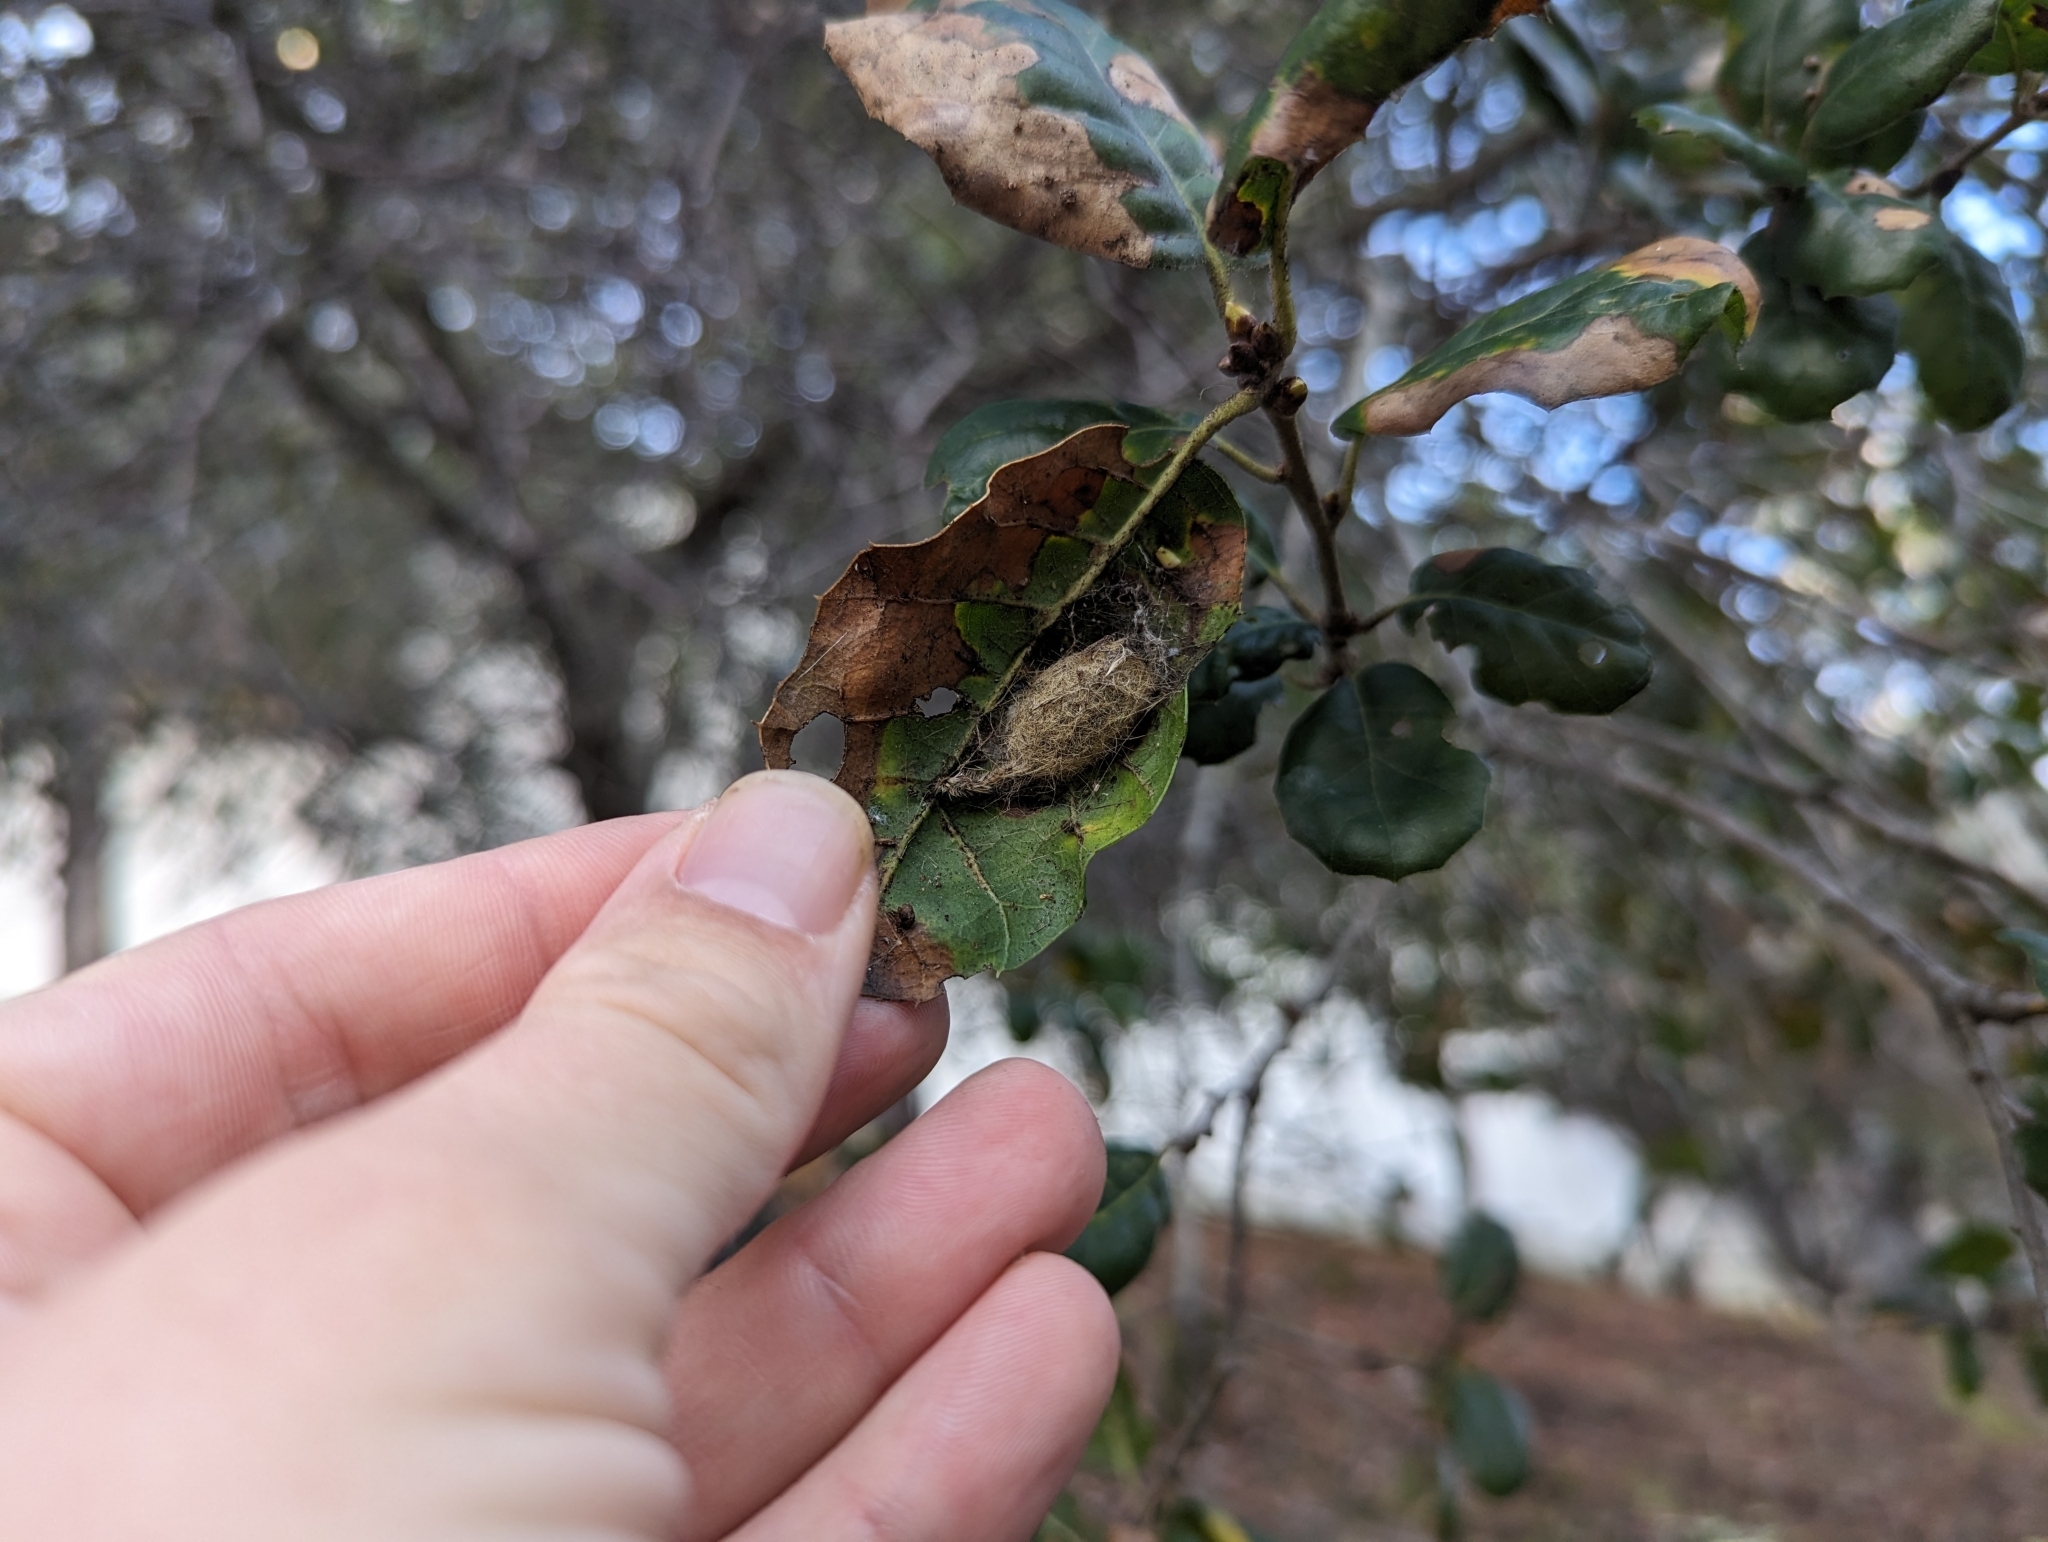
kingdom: Plantae
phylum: Tracheophyta
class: Magnoliopsida
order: Fagales
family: Fagaceae
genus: Quercus
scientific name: Quercus agrifolia
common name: California live oak
